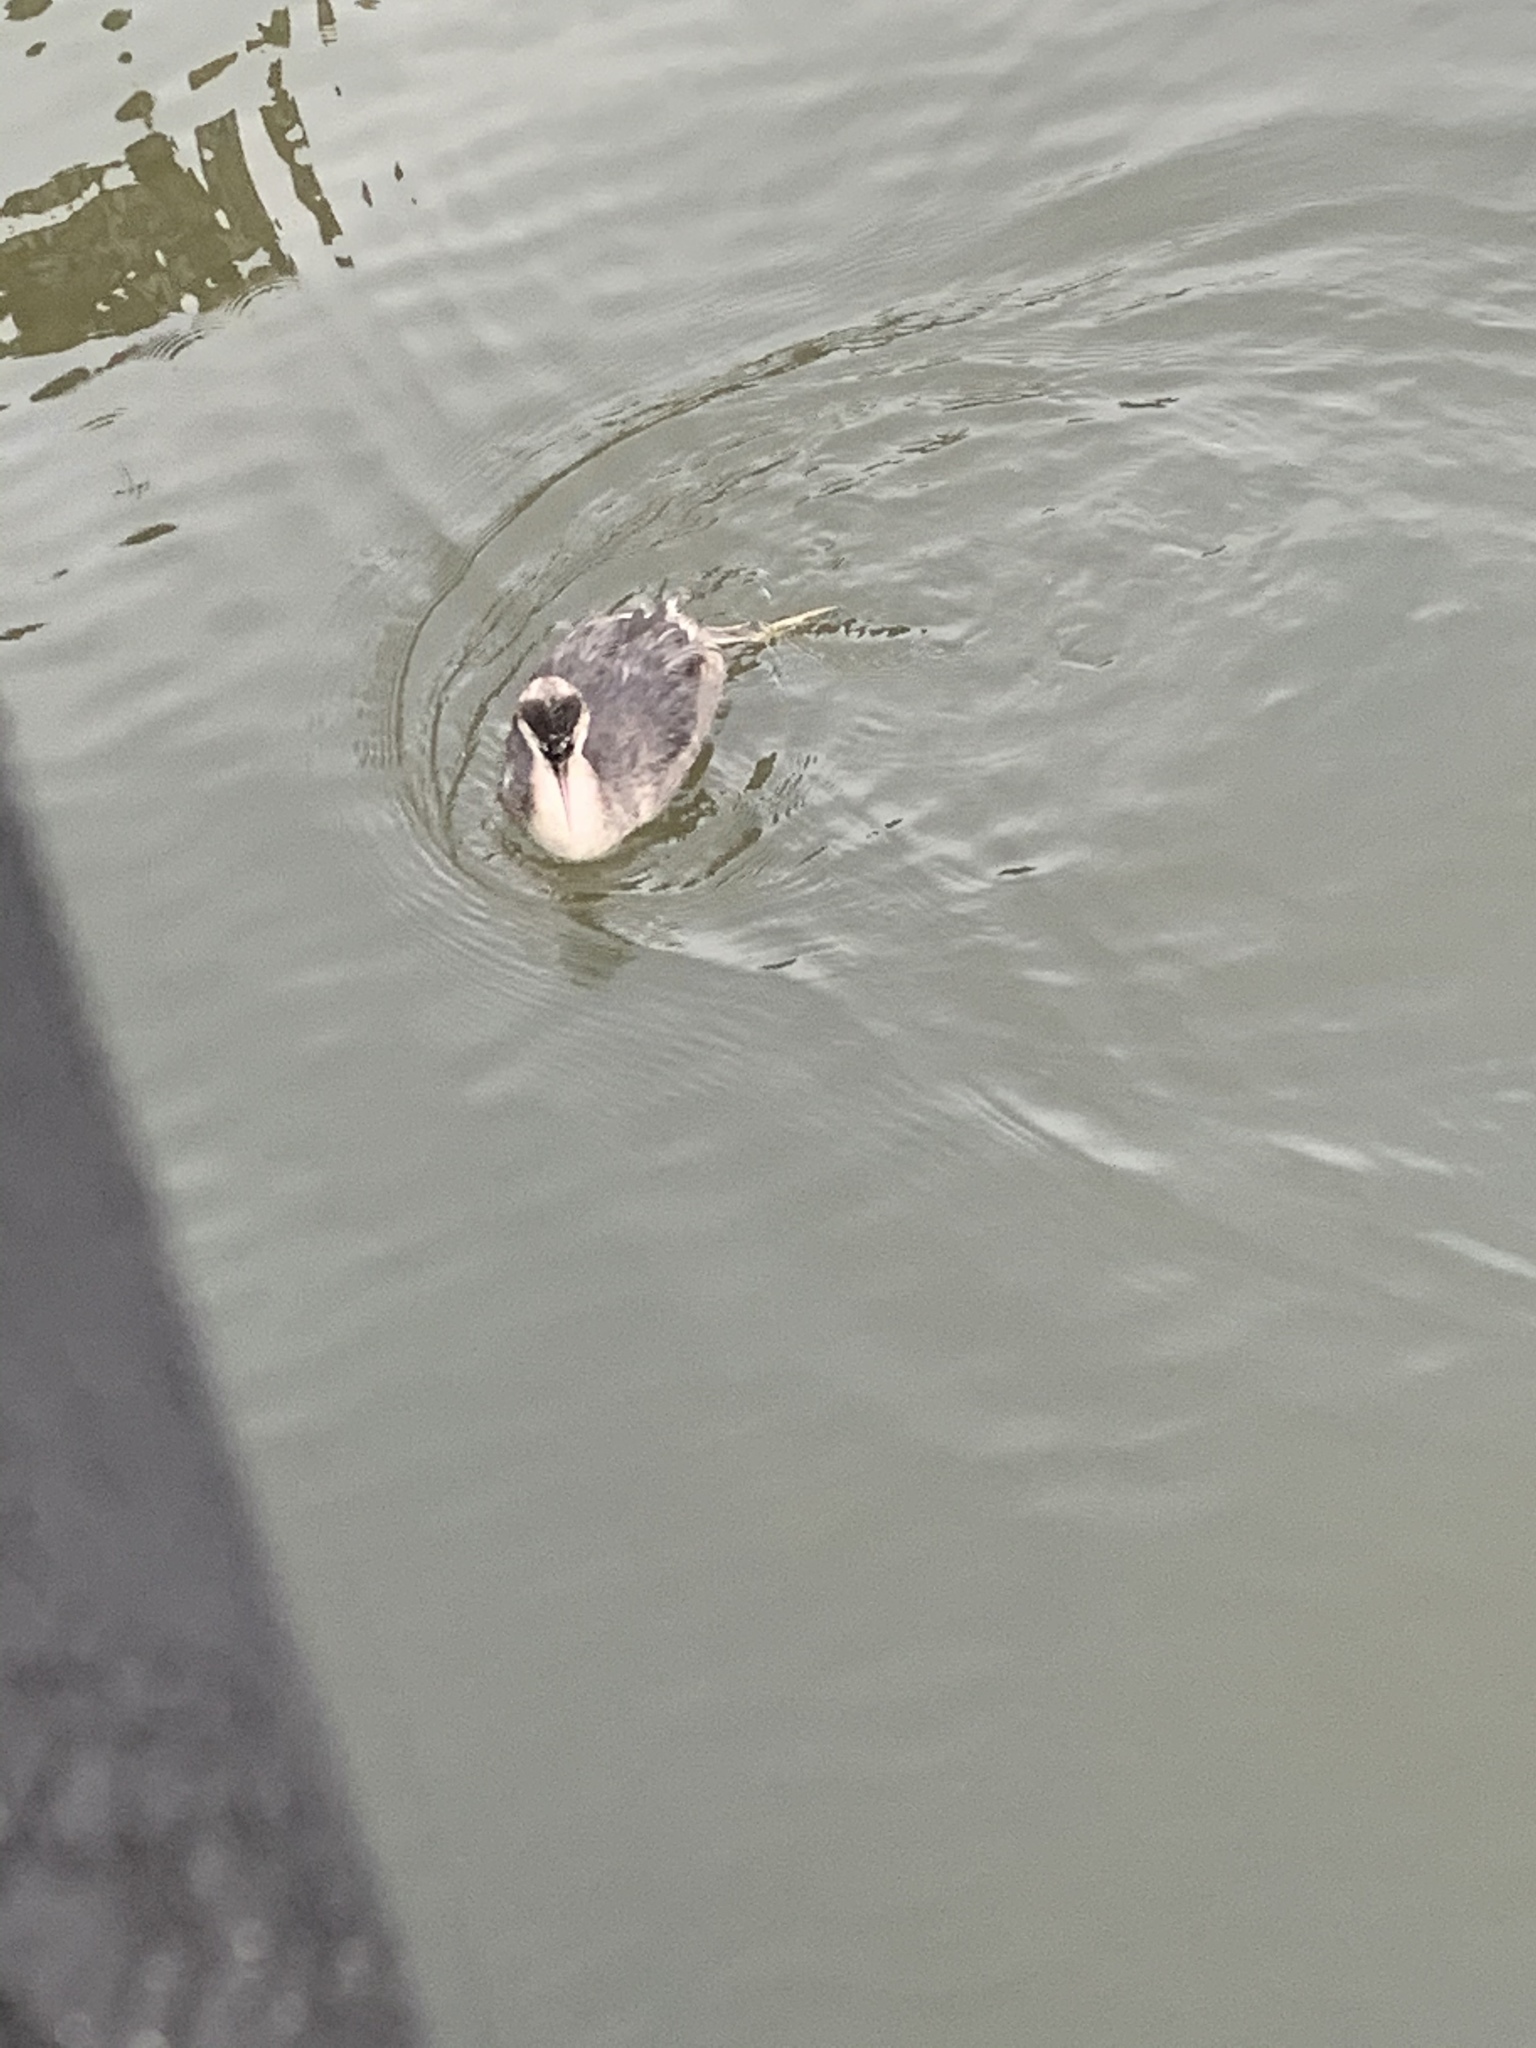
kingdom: Animalia
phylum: Chordata
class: Aves
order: Podicipediformes
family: Podicipedidae
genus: Podiceps
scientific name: Podiceps cristatus
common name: Great crested grebe
